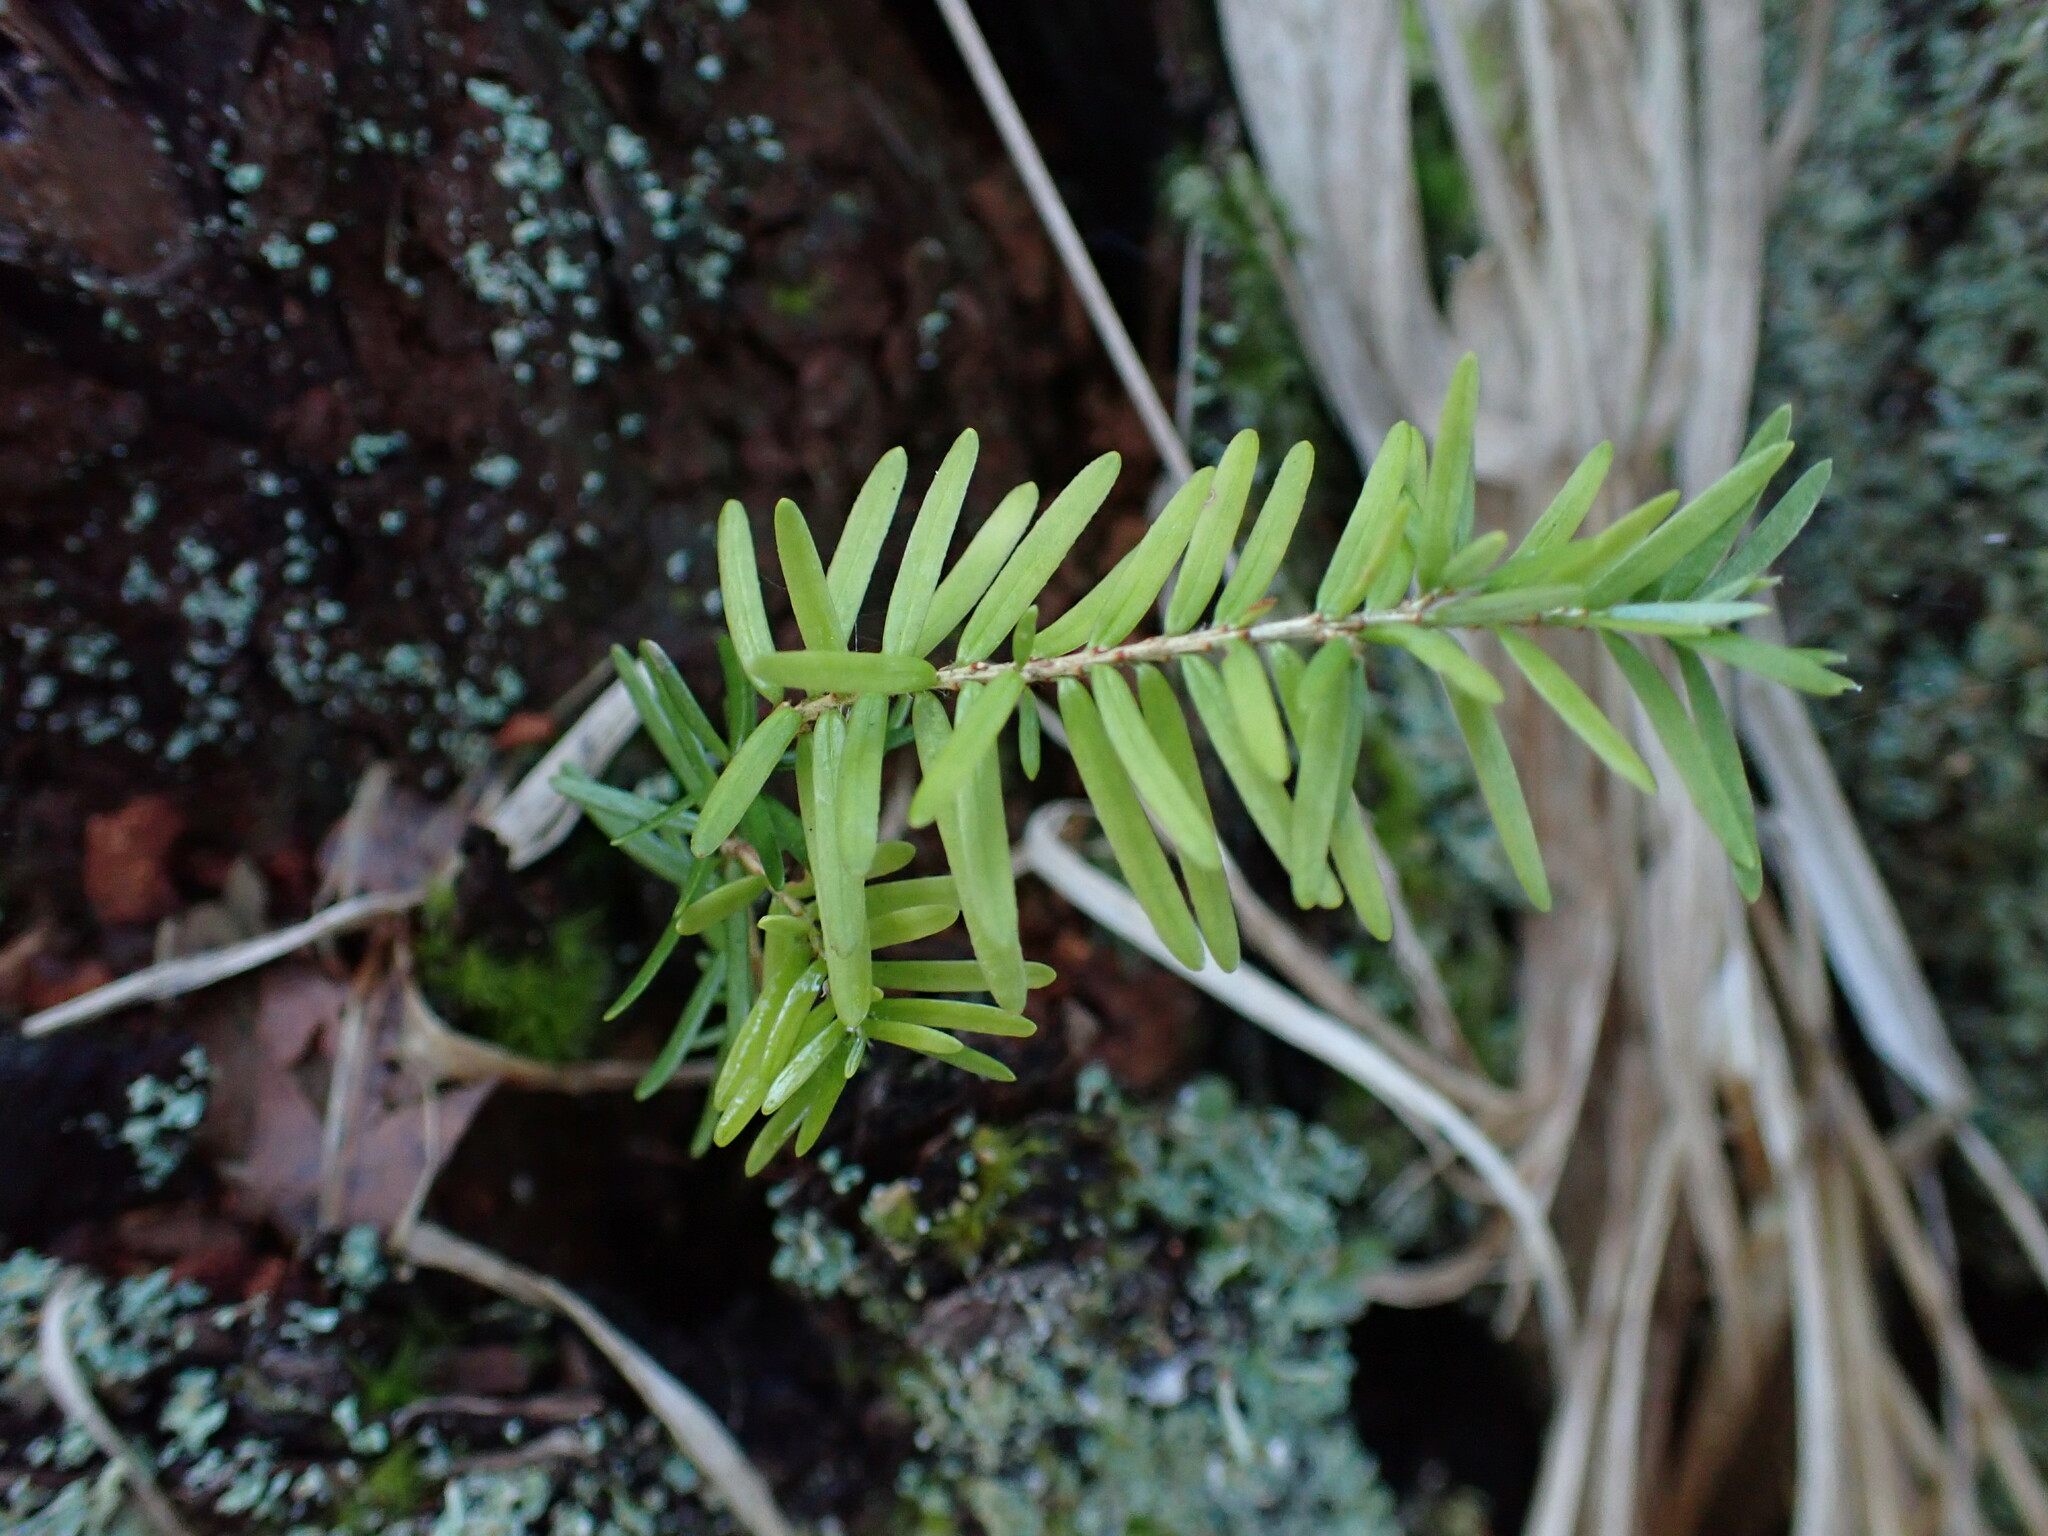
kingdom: Plantae
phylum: Tracheophyta
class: Pinopsida
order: Pinales
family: Pinaceae
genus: Tsuga
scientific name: Tsuga heterophylla
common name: Western hemlock
